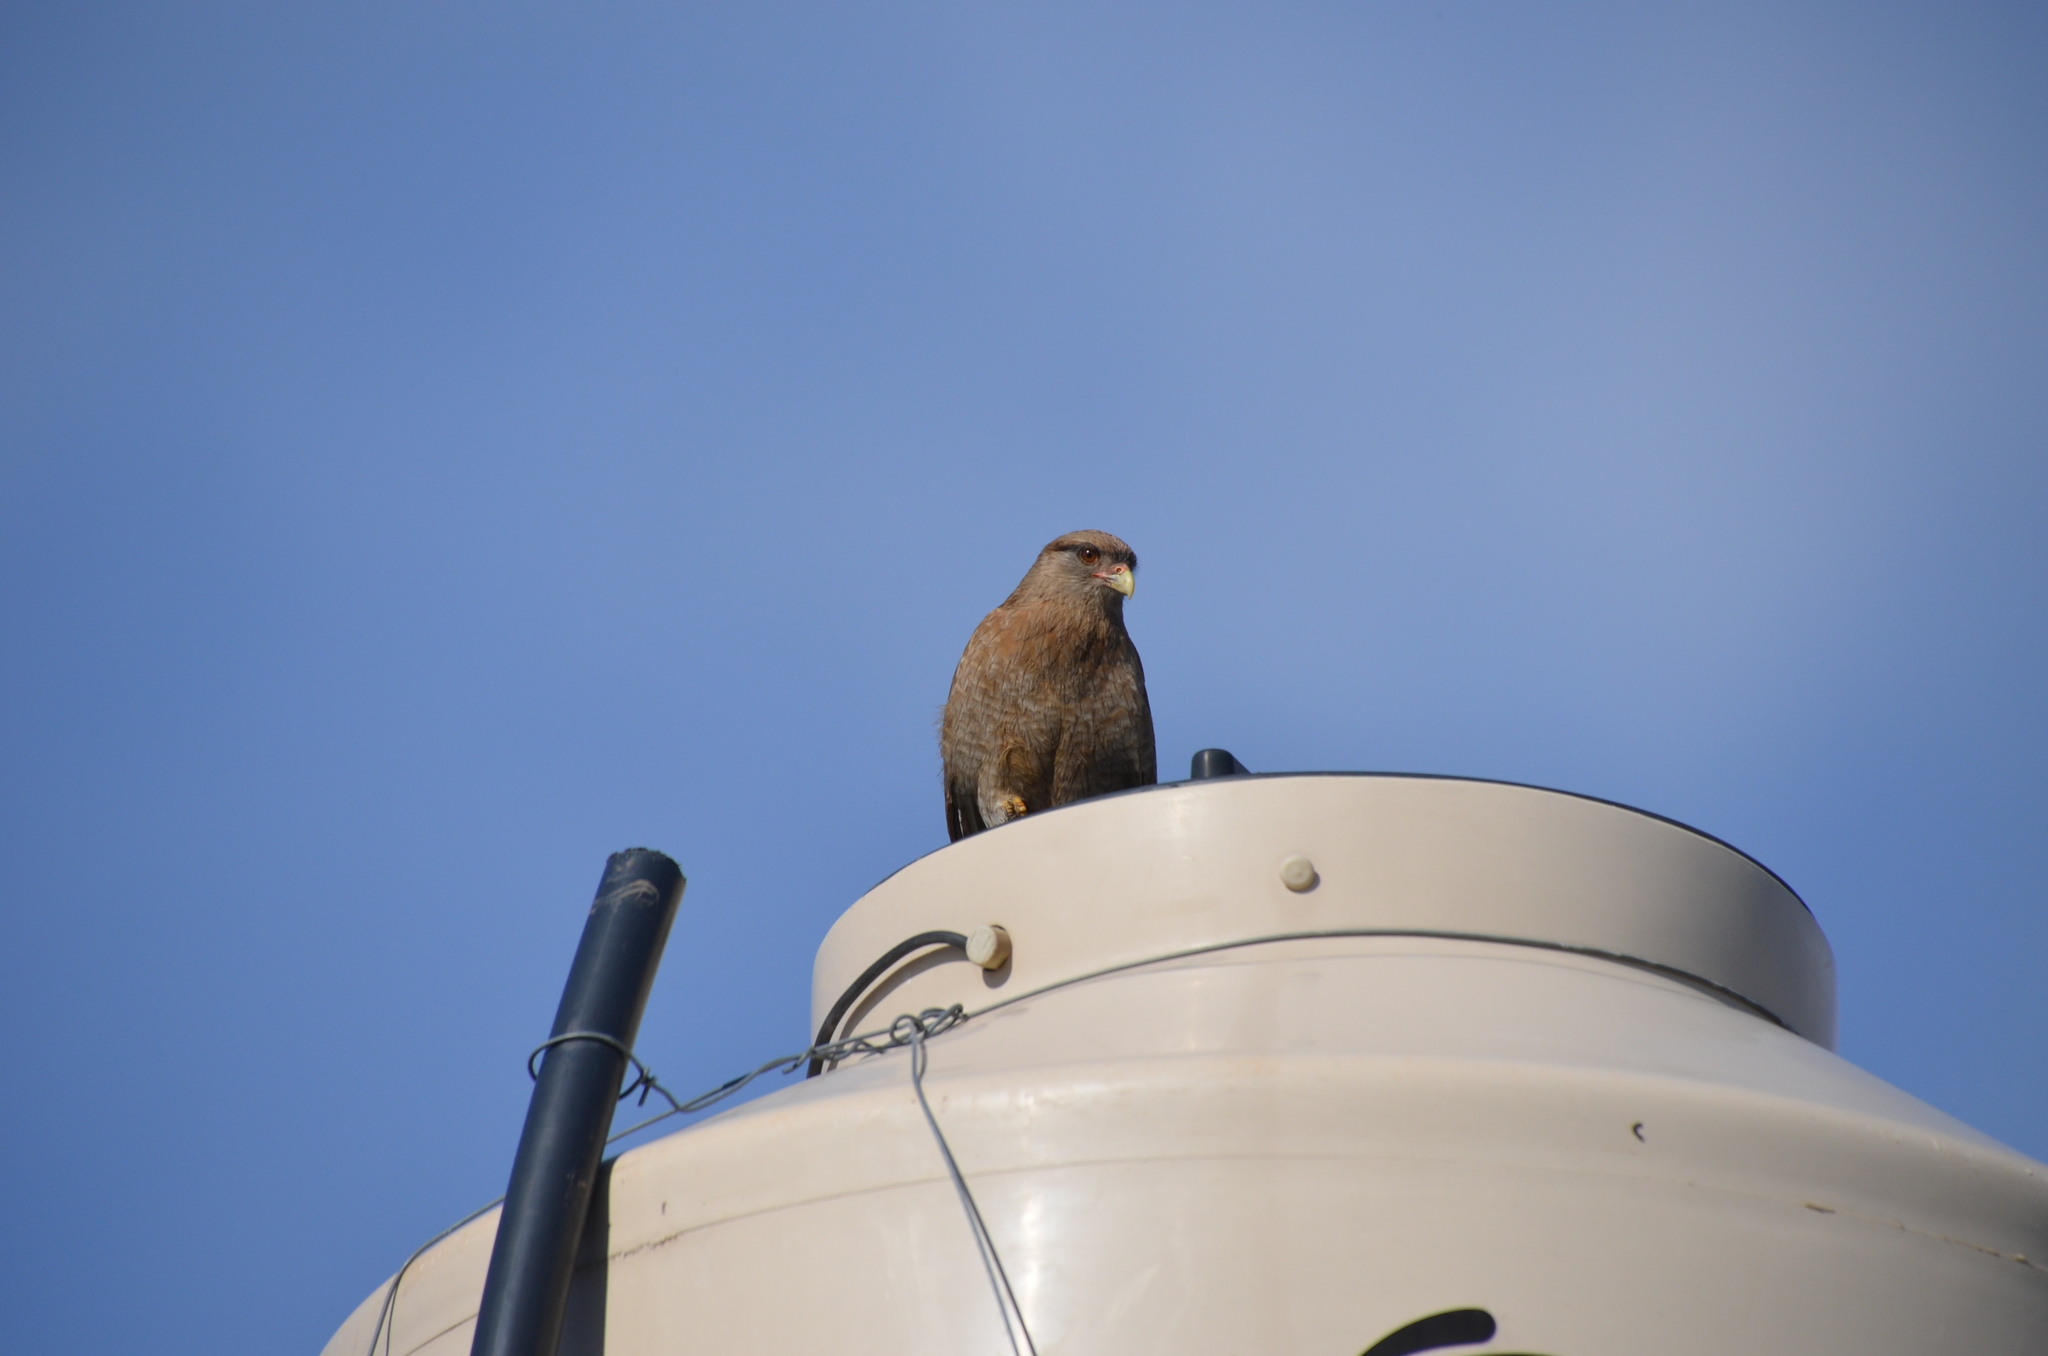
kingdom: Animalia
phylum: Chordata
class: Aves
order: Falconiformes
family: Falconidae
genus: Daptrius
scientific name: Daptrius
